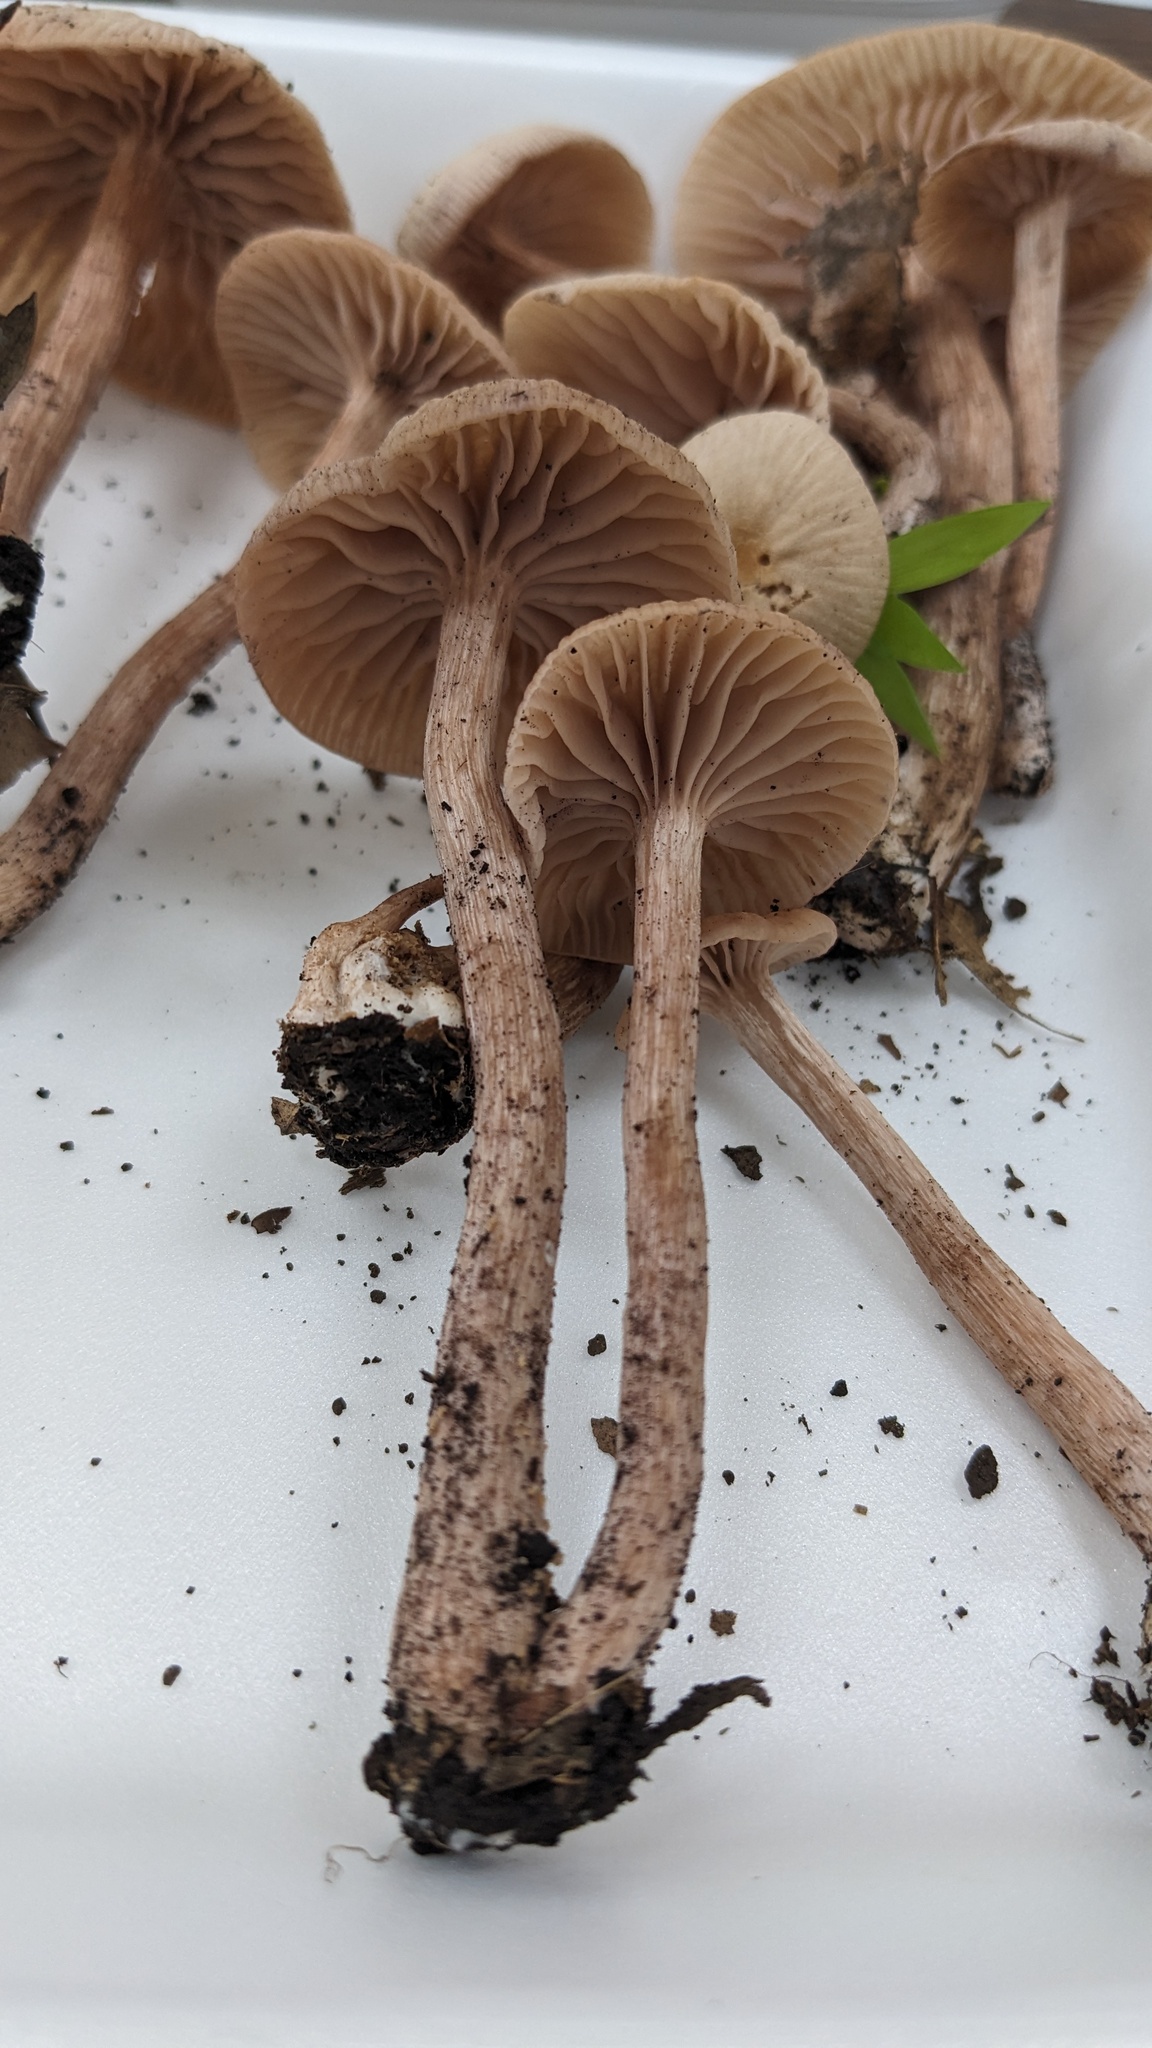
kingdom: Fungi
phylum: Basidiomycota
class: Agaricomycetes
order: Agaricales
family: Hydnangiaceae
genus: Laccaria
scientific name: Laccaria vinaceoavellanea
